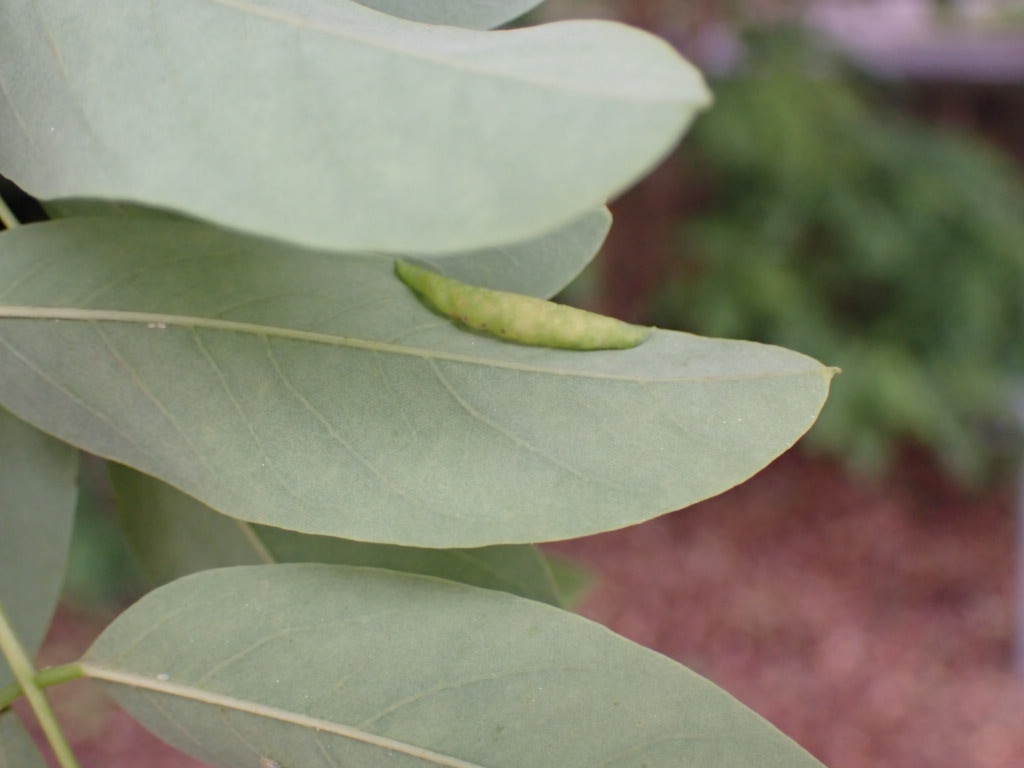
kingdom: Animalia
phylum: Arthropoda
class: Insecta
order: Diptera
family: Cecidomyiidae
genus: Obolodiplosis
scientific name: Obolodiplosis robiniae
